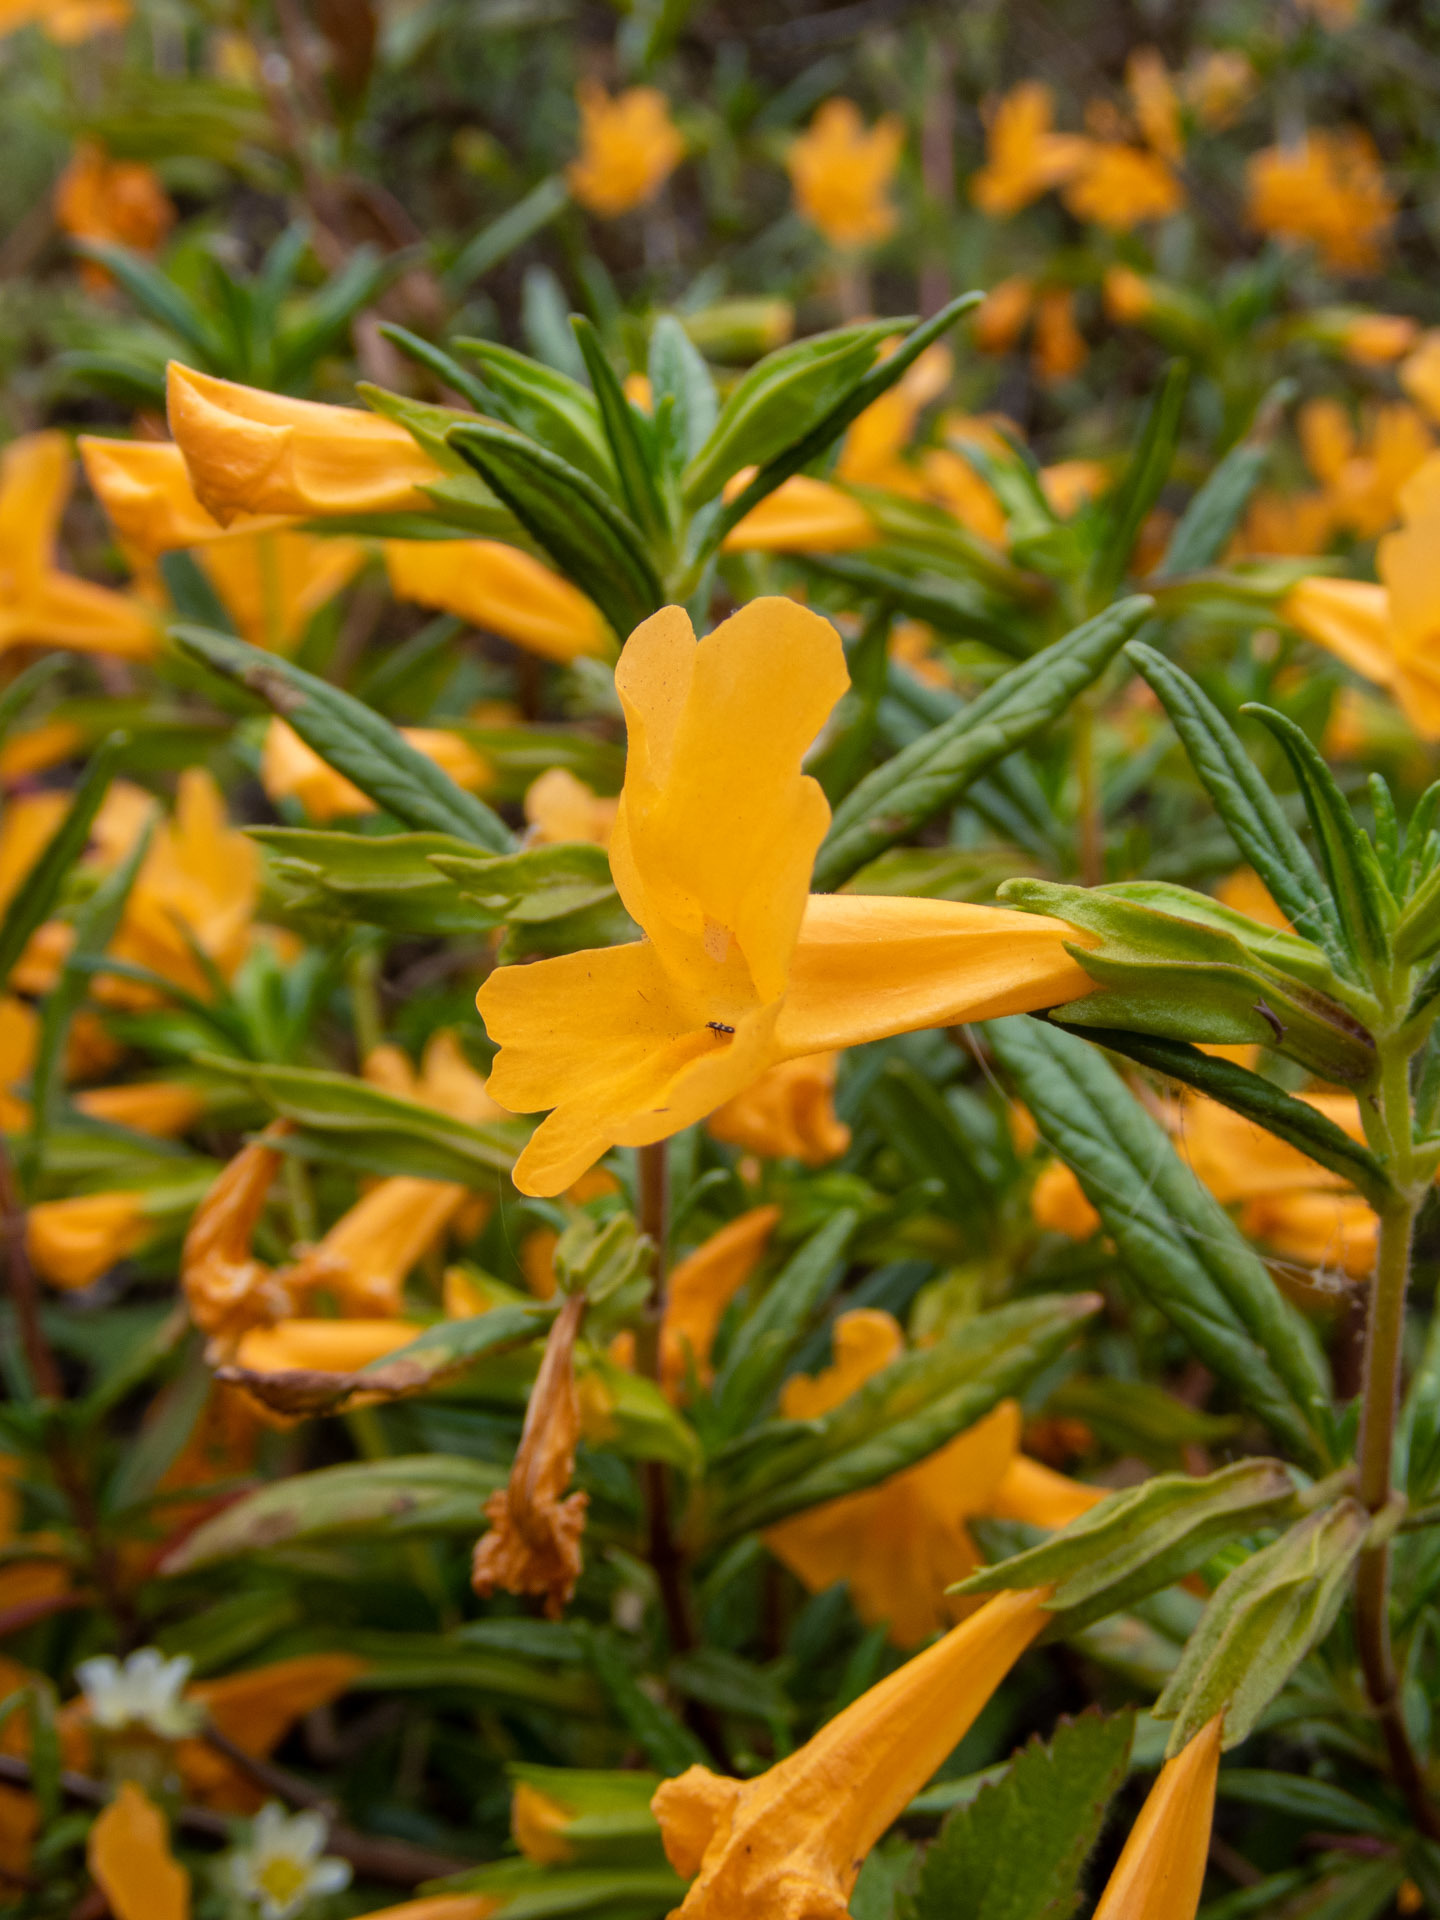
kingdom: Plantae
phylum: Tracheophyta
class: Magnoliopsida
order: Lamiales
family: Phrymaceae
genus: Diplacus
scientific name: Diplacus aurantiacus
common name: Bush monkey-flower
